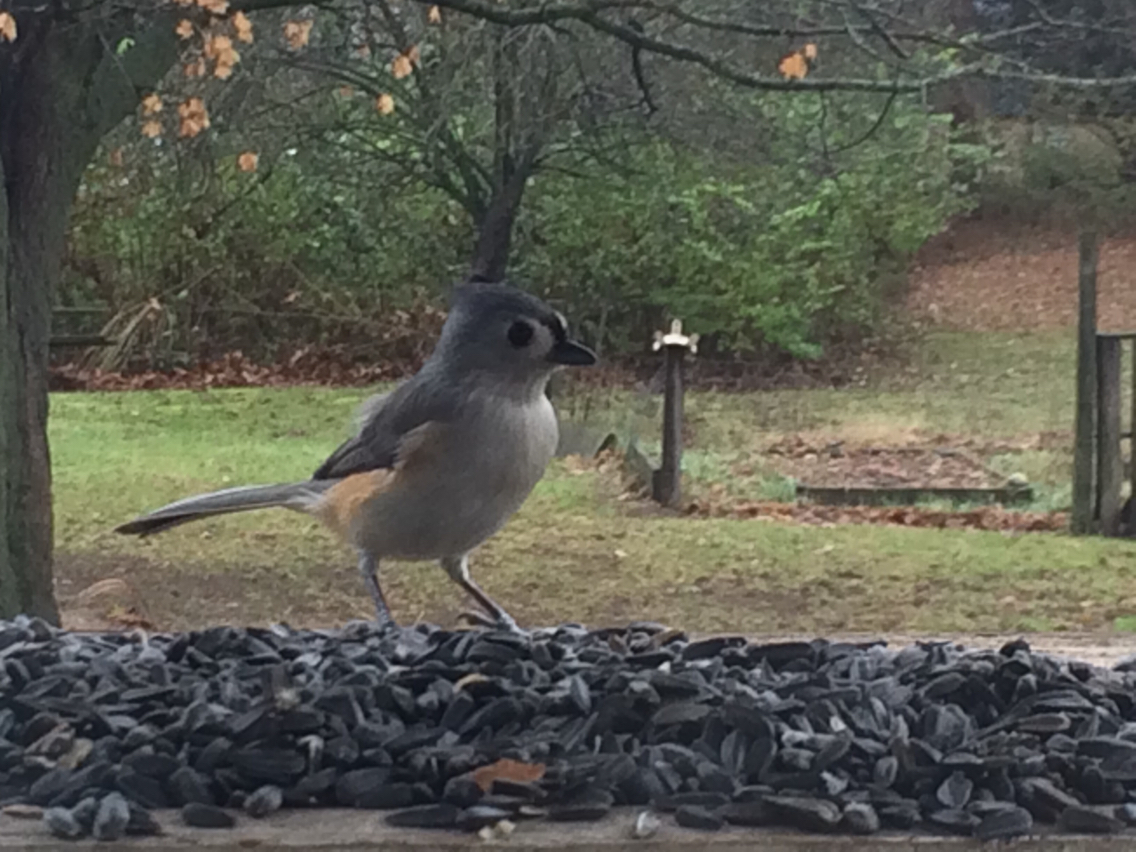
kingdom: Animalia
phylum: Chordata
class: Aves
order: Passeriformes
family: Paridae
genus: Baeolophus
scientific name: Baeolophus bicolor
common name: Tufted titmouse
